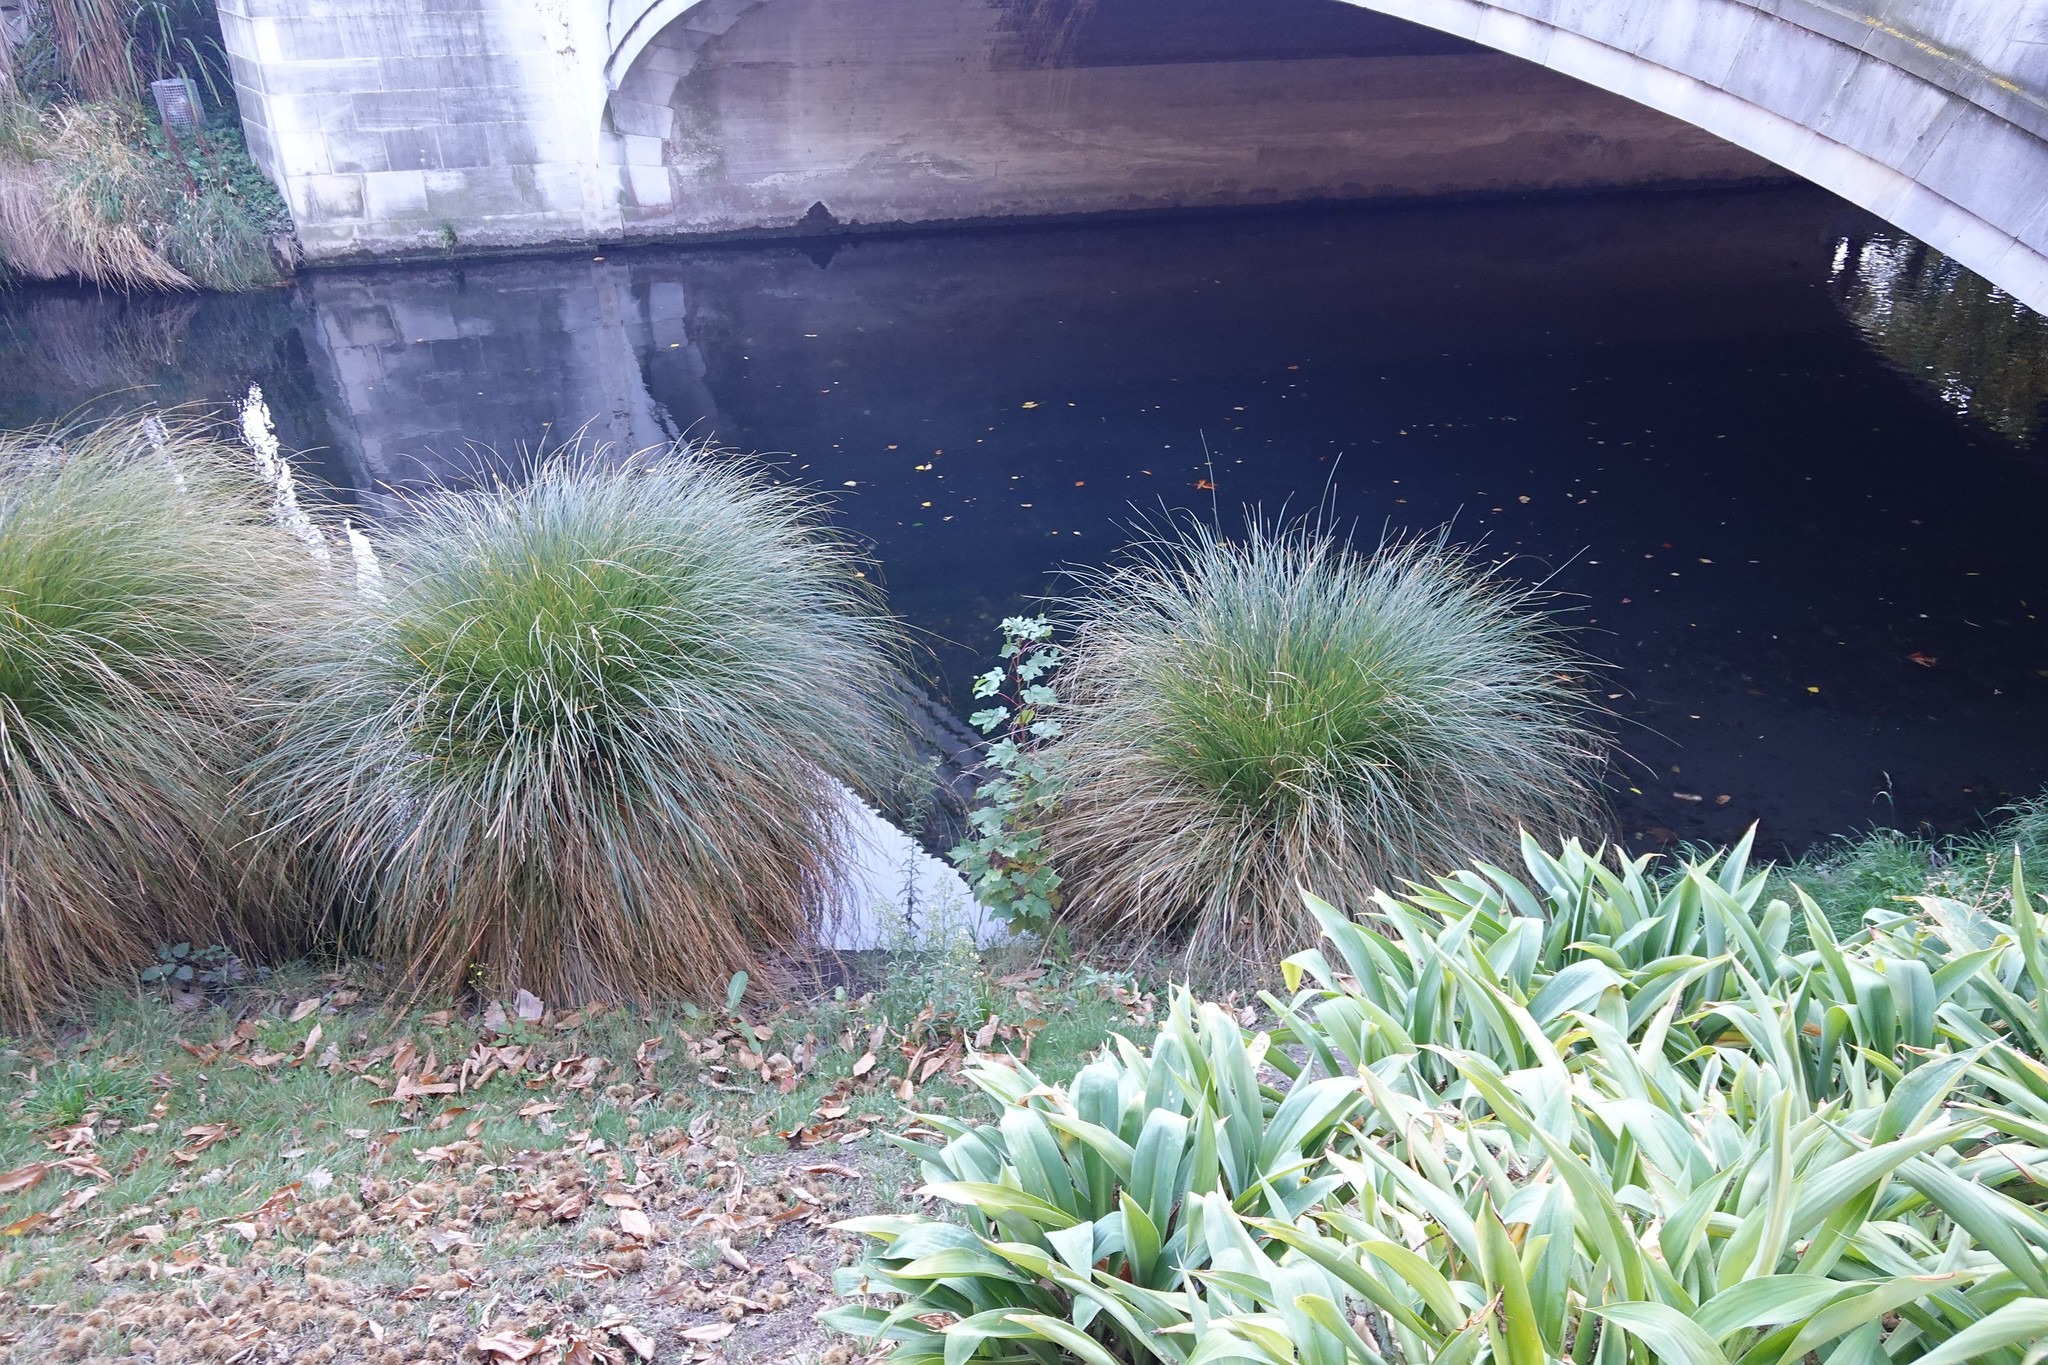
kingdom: Plantae
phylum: Tracheophyta
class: Magnoliopsida
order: Sapindales
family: Sapindaceae
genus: Acer
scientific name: Acer pseudoplatanus
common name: Sycamore
